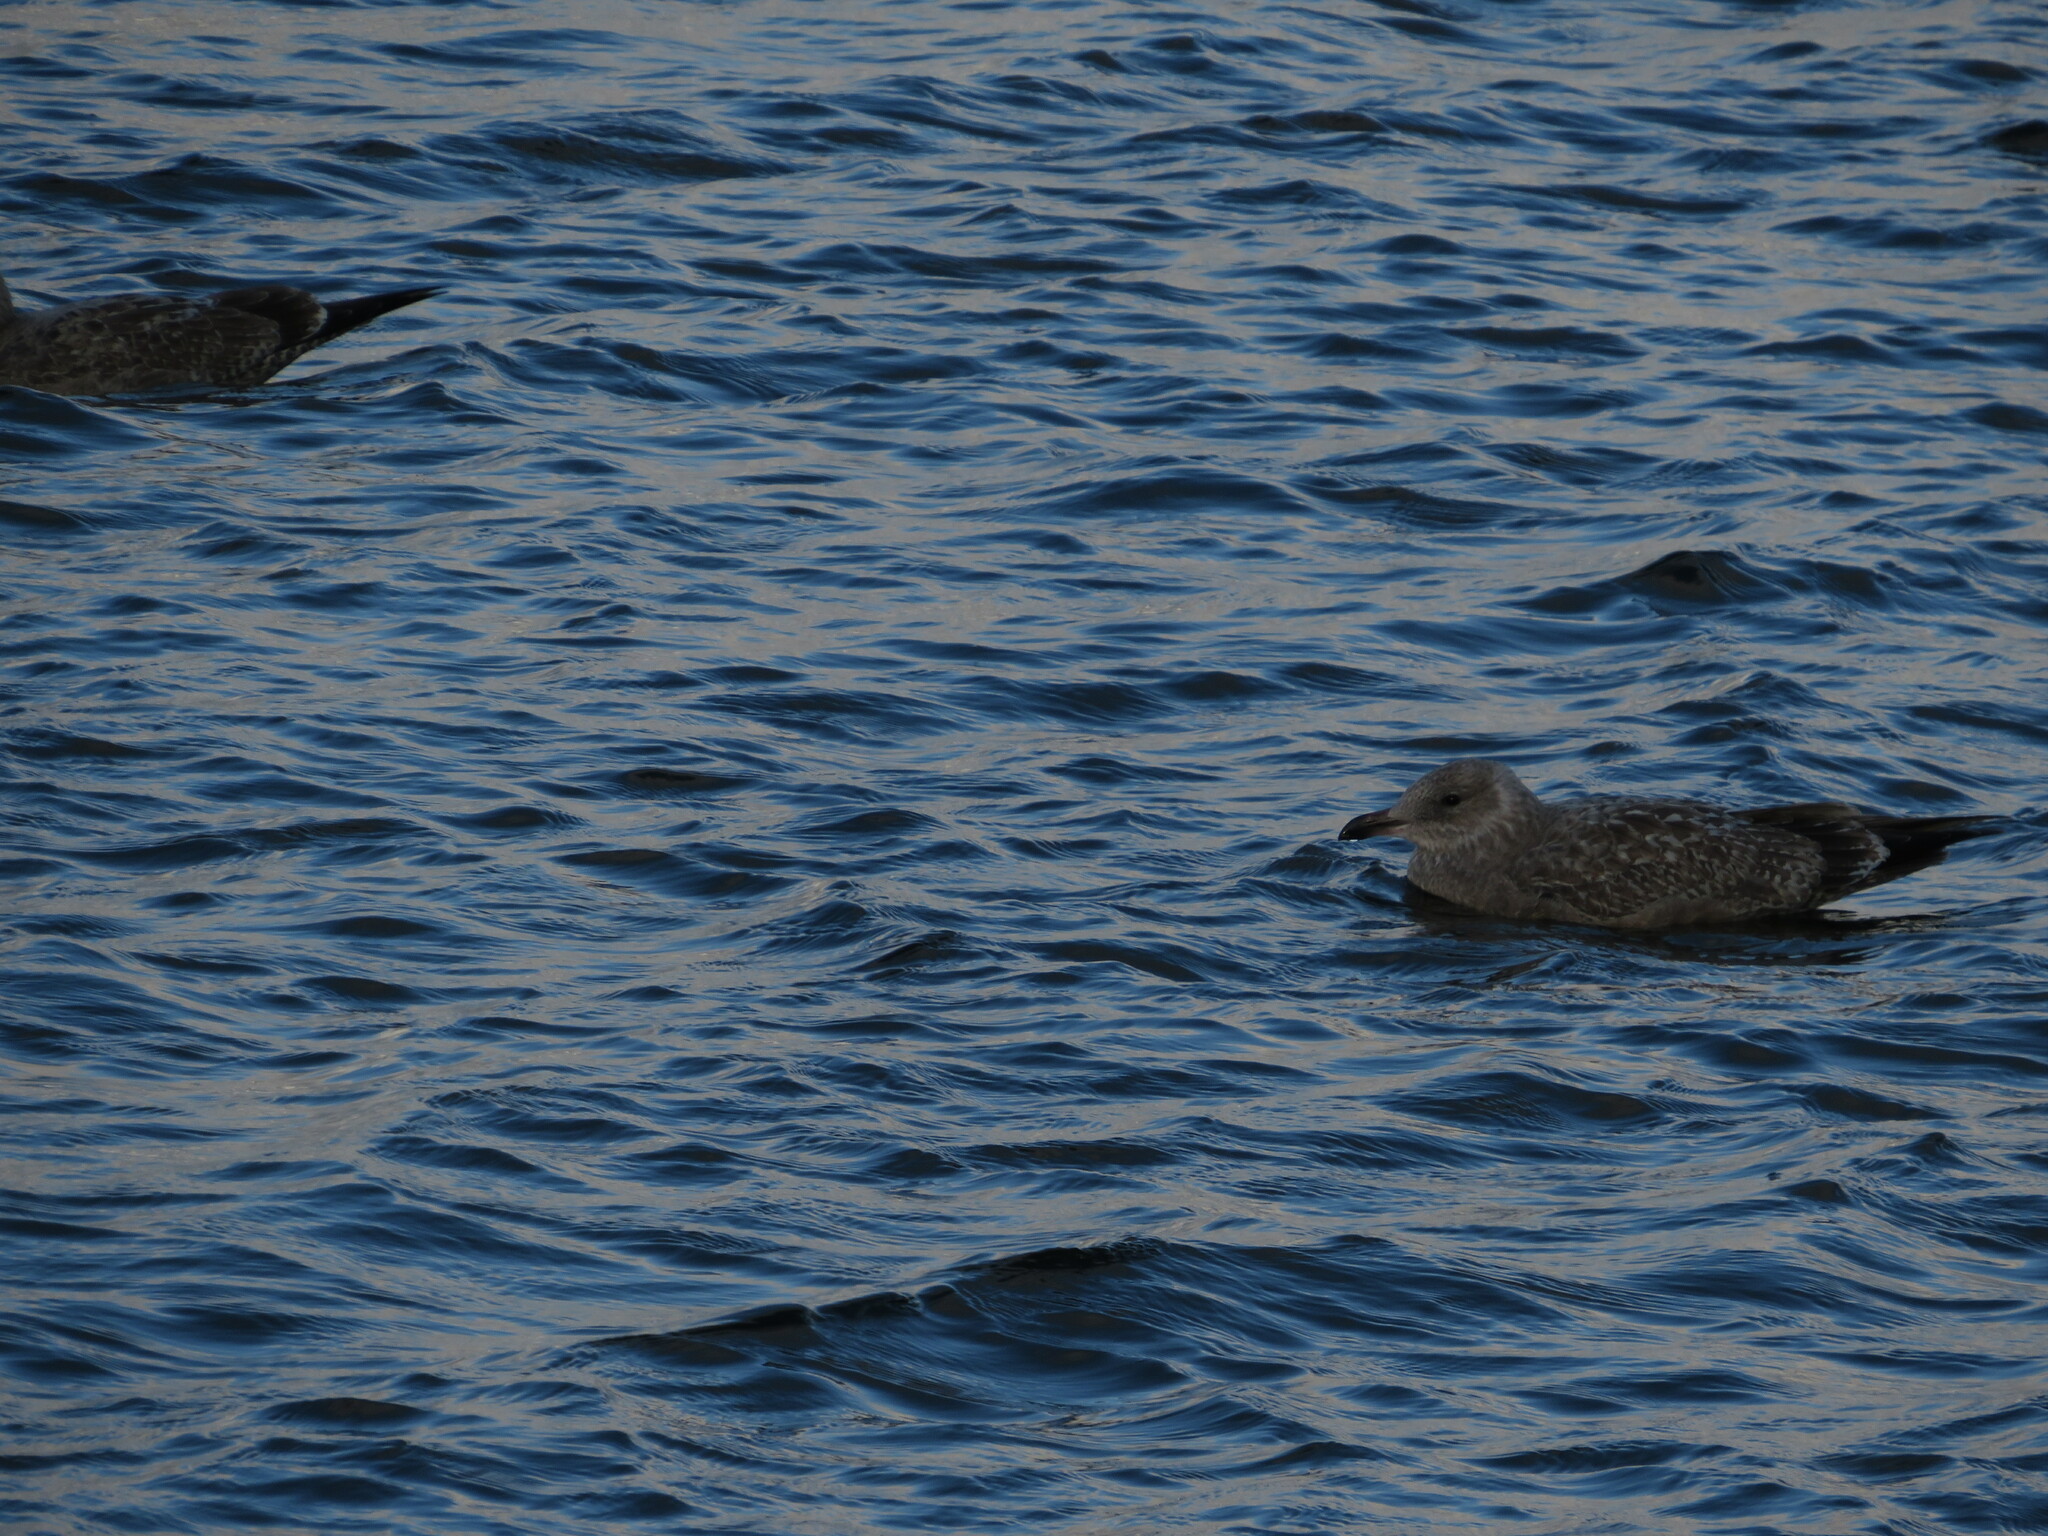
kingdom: Animalia
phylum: Chordata
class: Aves
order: Charadriiformes
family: Laridae
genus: Larus
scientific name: Larus marinus
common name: Great black-backed gull
